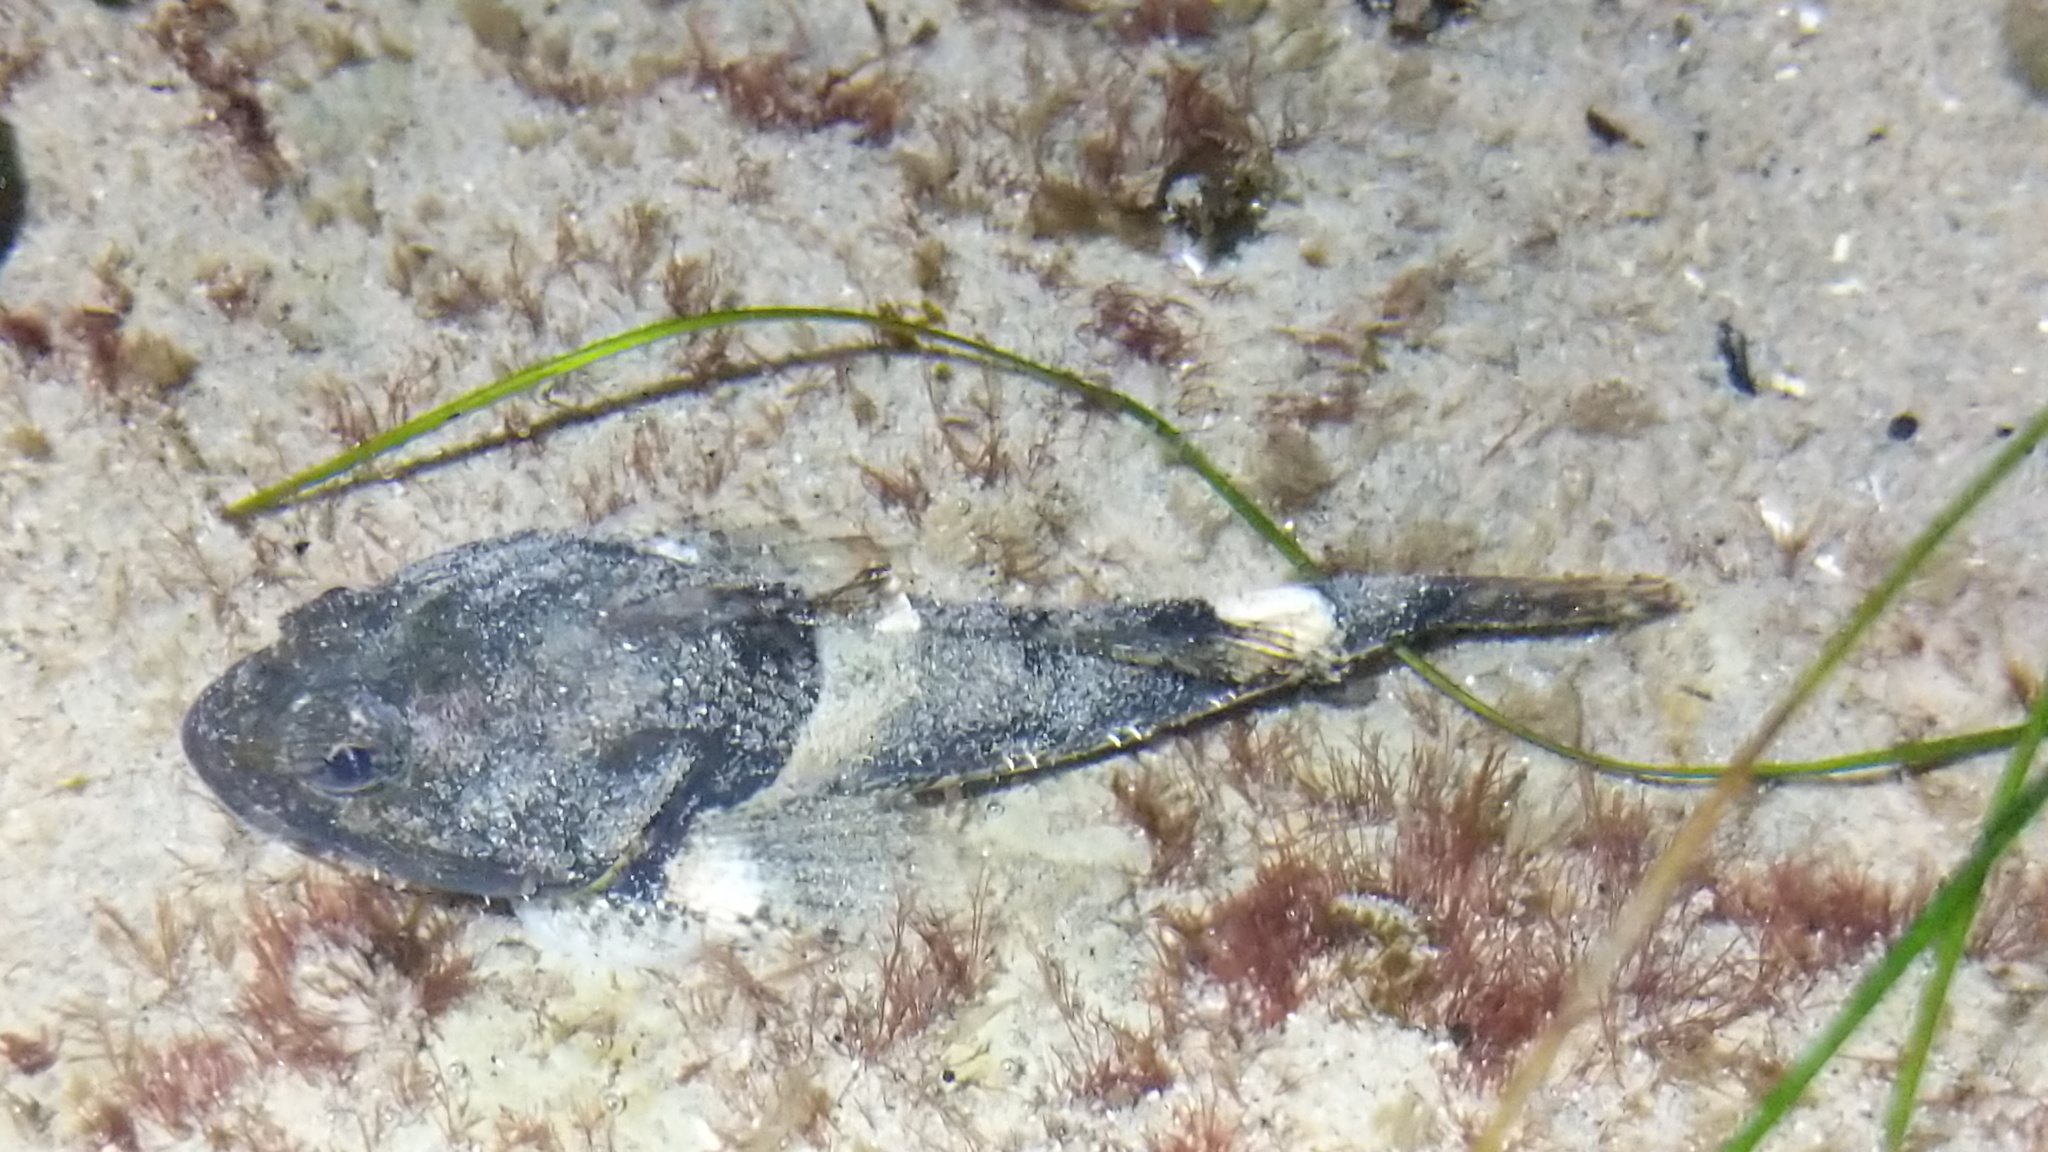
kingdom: Animalia
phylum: Chordata
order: Scorpaeniformes
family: Cottidae
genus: Artedius
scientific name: Artedius notospilotus
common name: Bonehead sculpin
